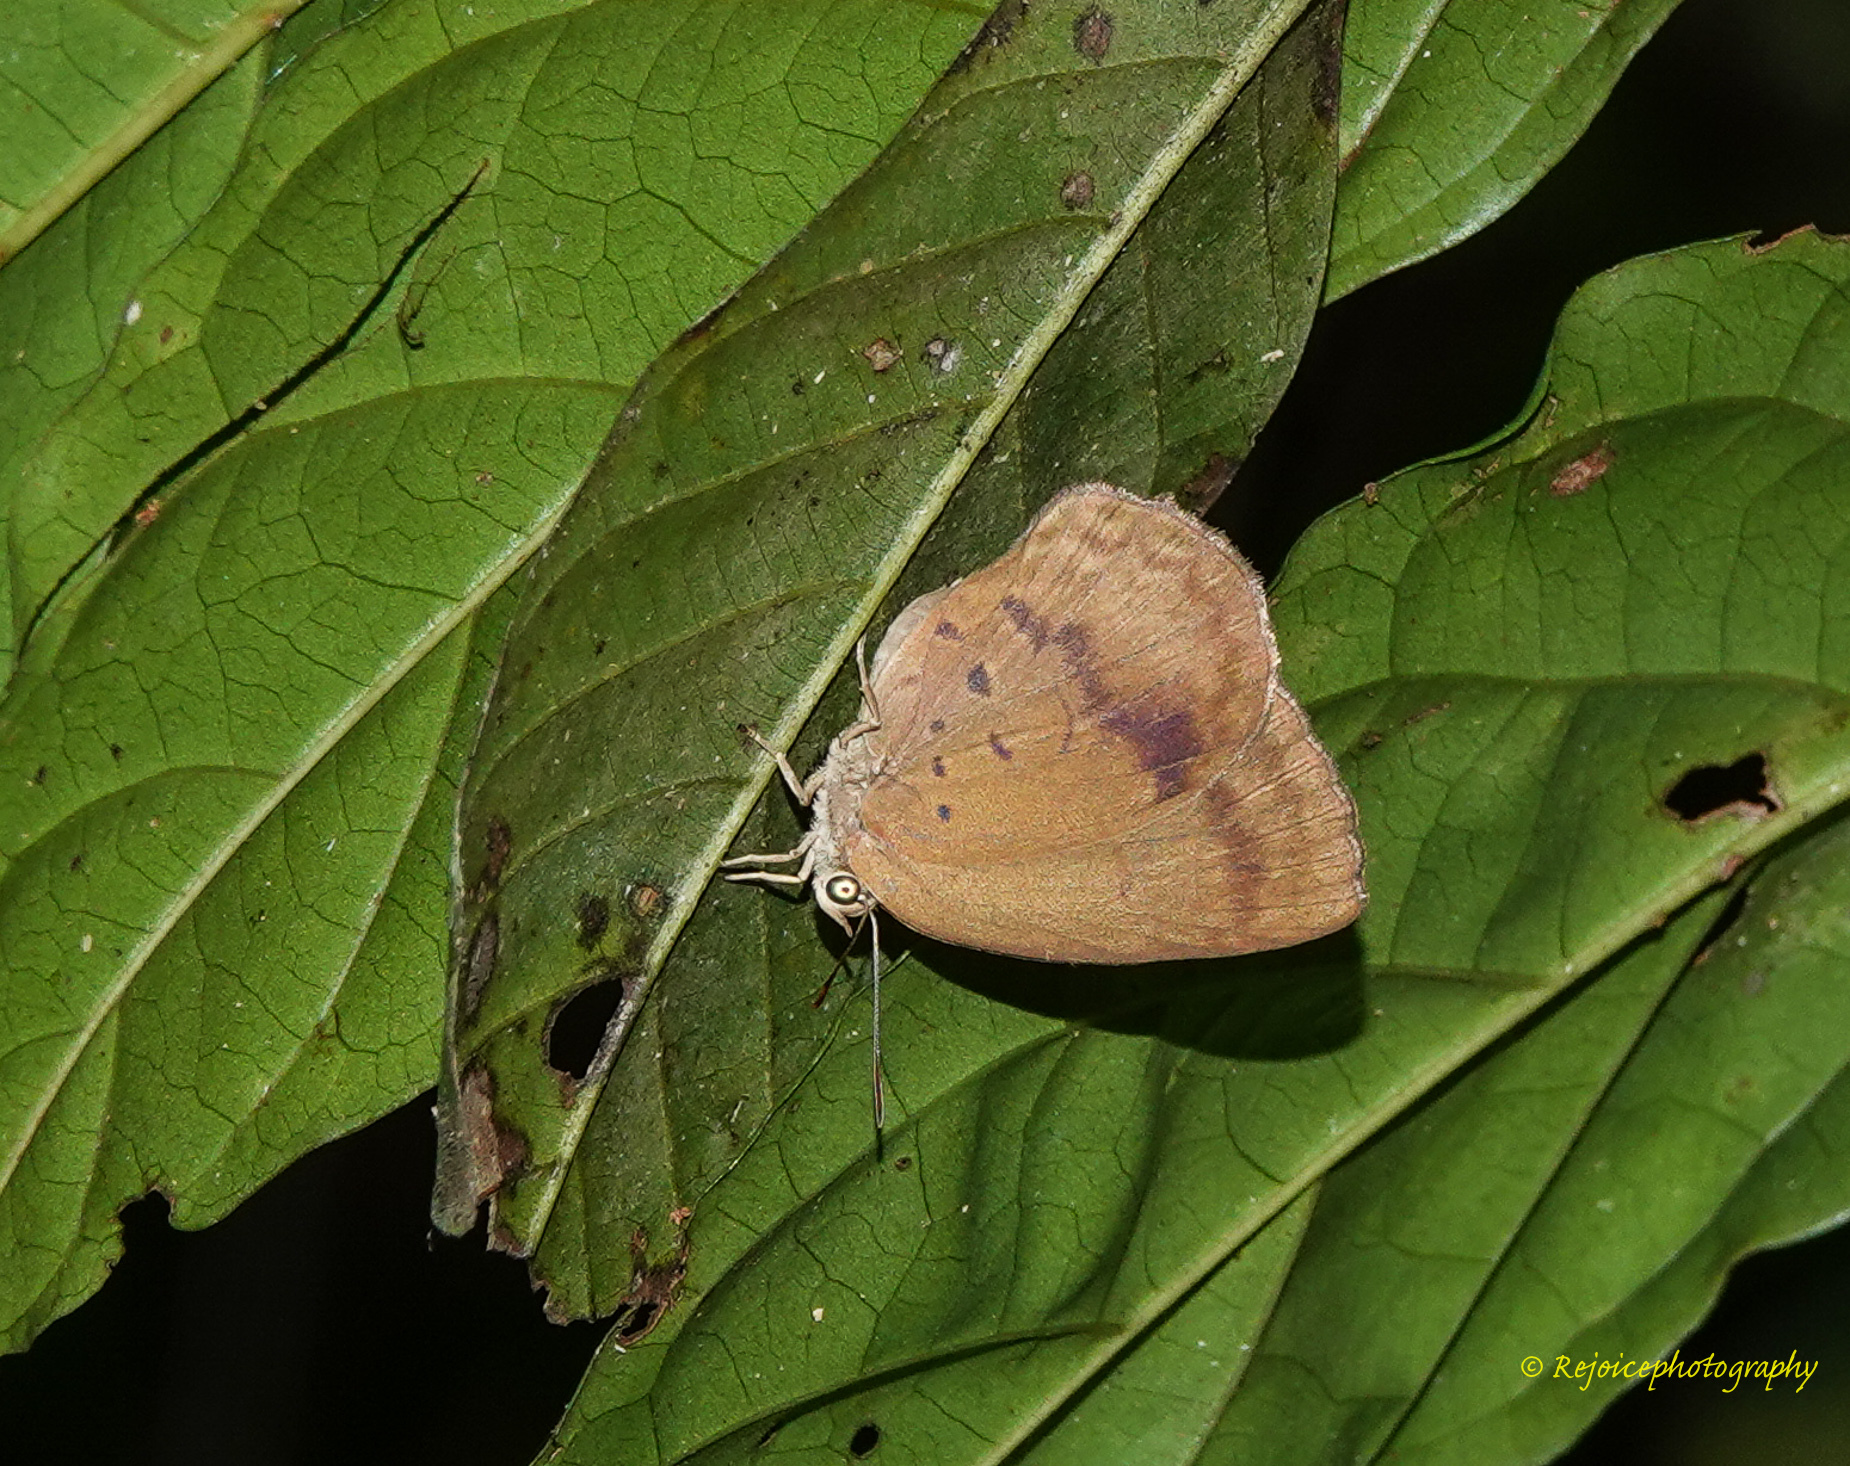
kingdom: Animalia
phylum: Arthropoda
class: Insecta
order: Lepidoptera
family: Lycaenidae
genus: Arhopala
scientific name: Arhopala fulla
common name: Spotless oakblue
